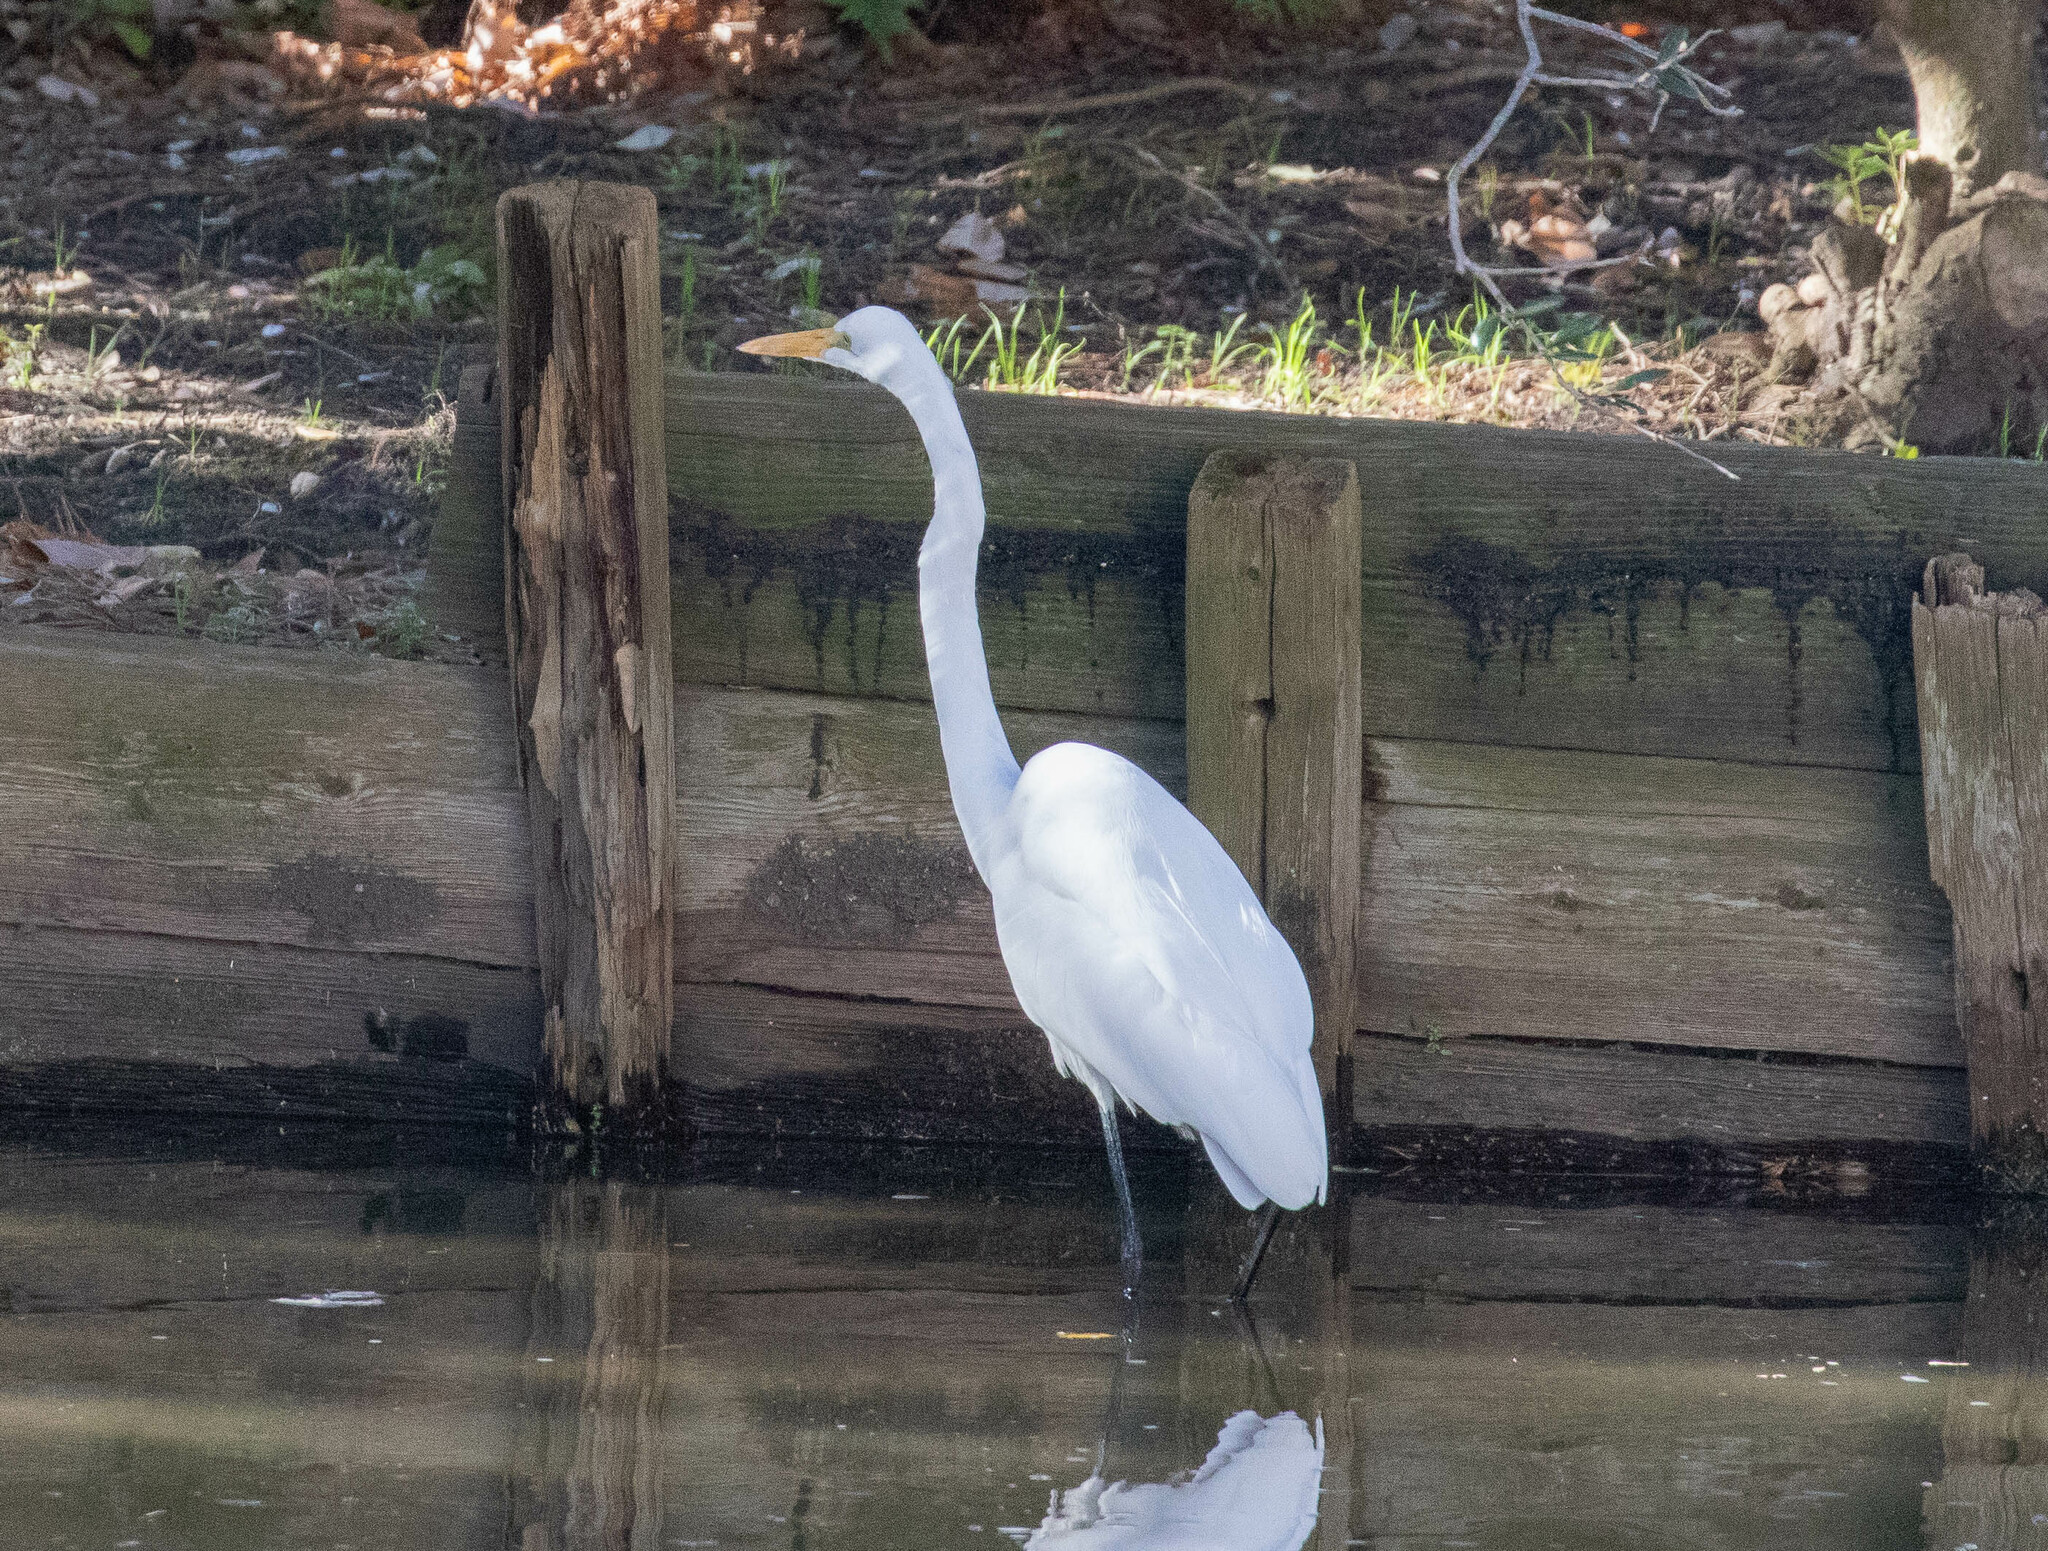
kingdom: Animalia
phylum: Chordata
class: Aves
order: Pelecaniformes
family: Ardeidae
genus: Ardea
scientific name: Ardea alba
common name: Great egret
